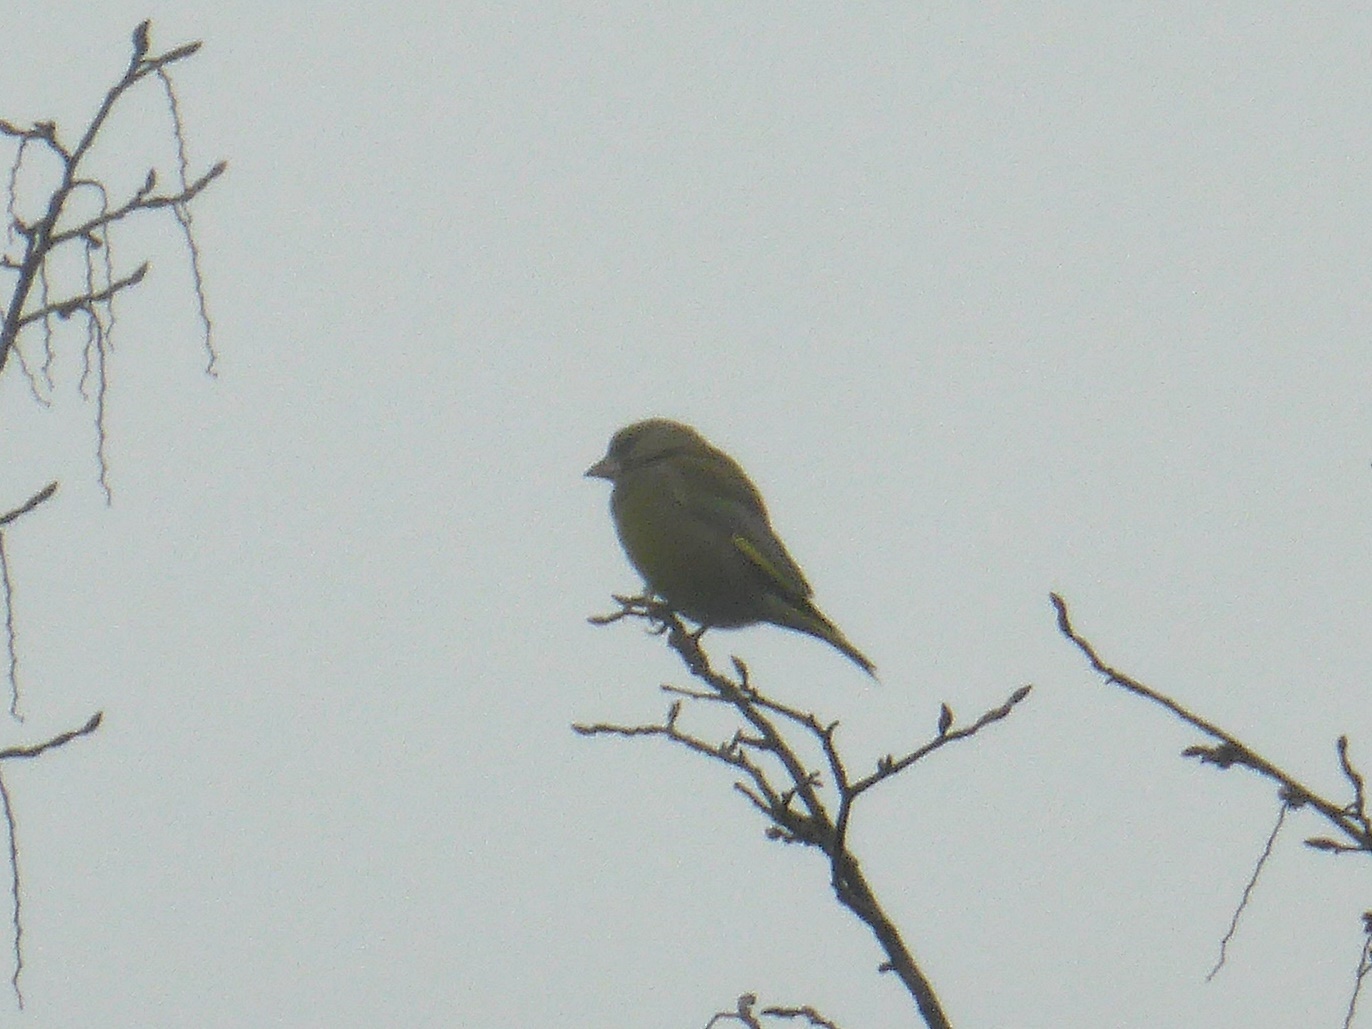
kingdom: Plantae
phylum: Tracheophyta
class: Liliopsida
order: Poales
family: Poaceae
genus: Chloris
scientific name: Chloris chloris
